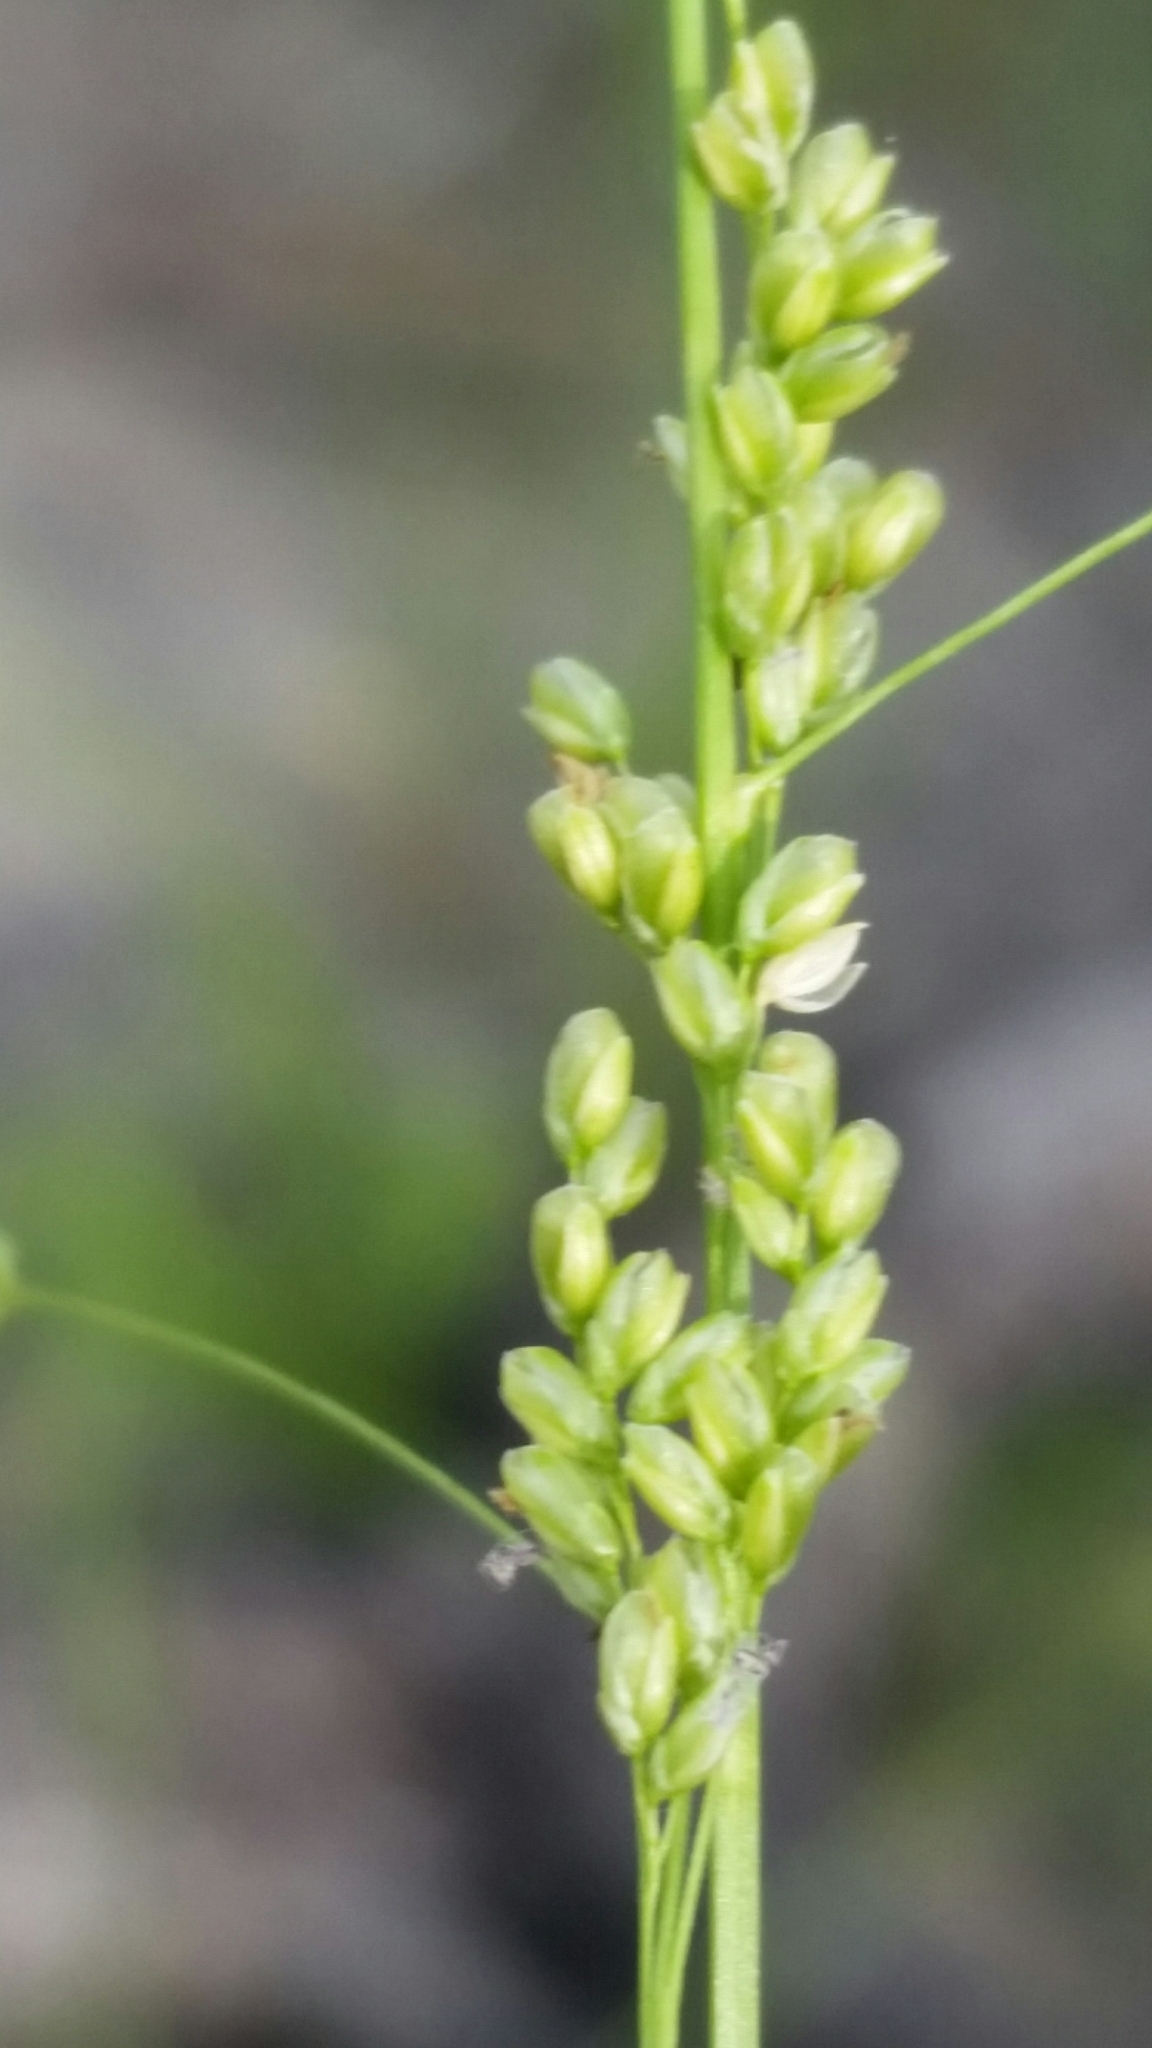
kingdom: Plantae
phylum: Tracheophyta
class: Liliopsida
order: Poales
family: Poaceae
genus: Steinchisma
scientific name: Steinchisma hians
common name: Gaping panic grass
